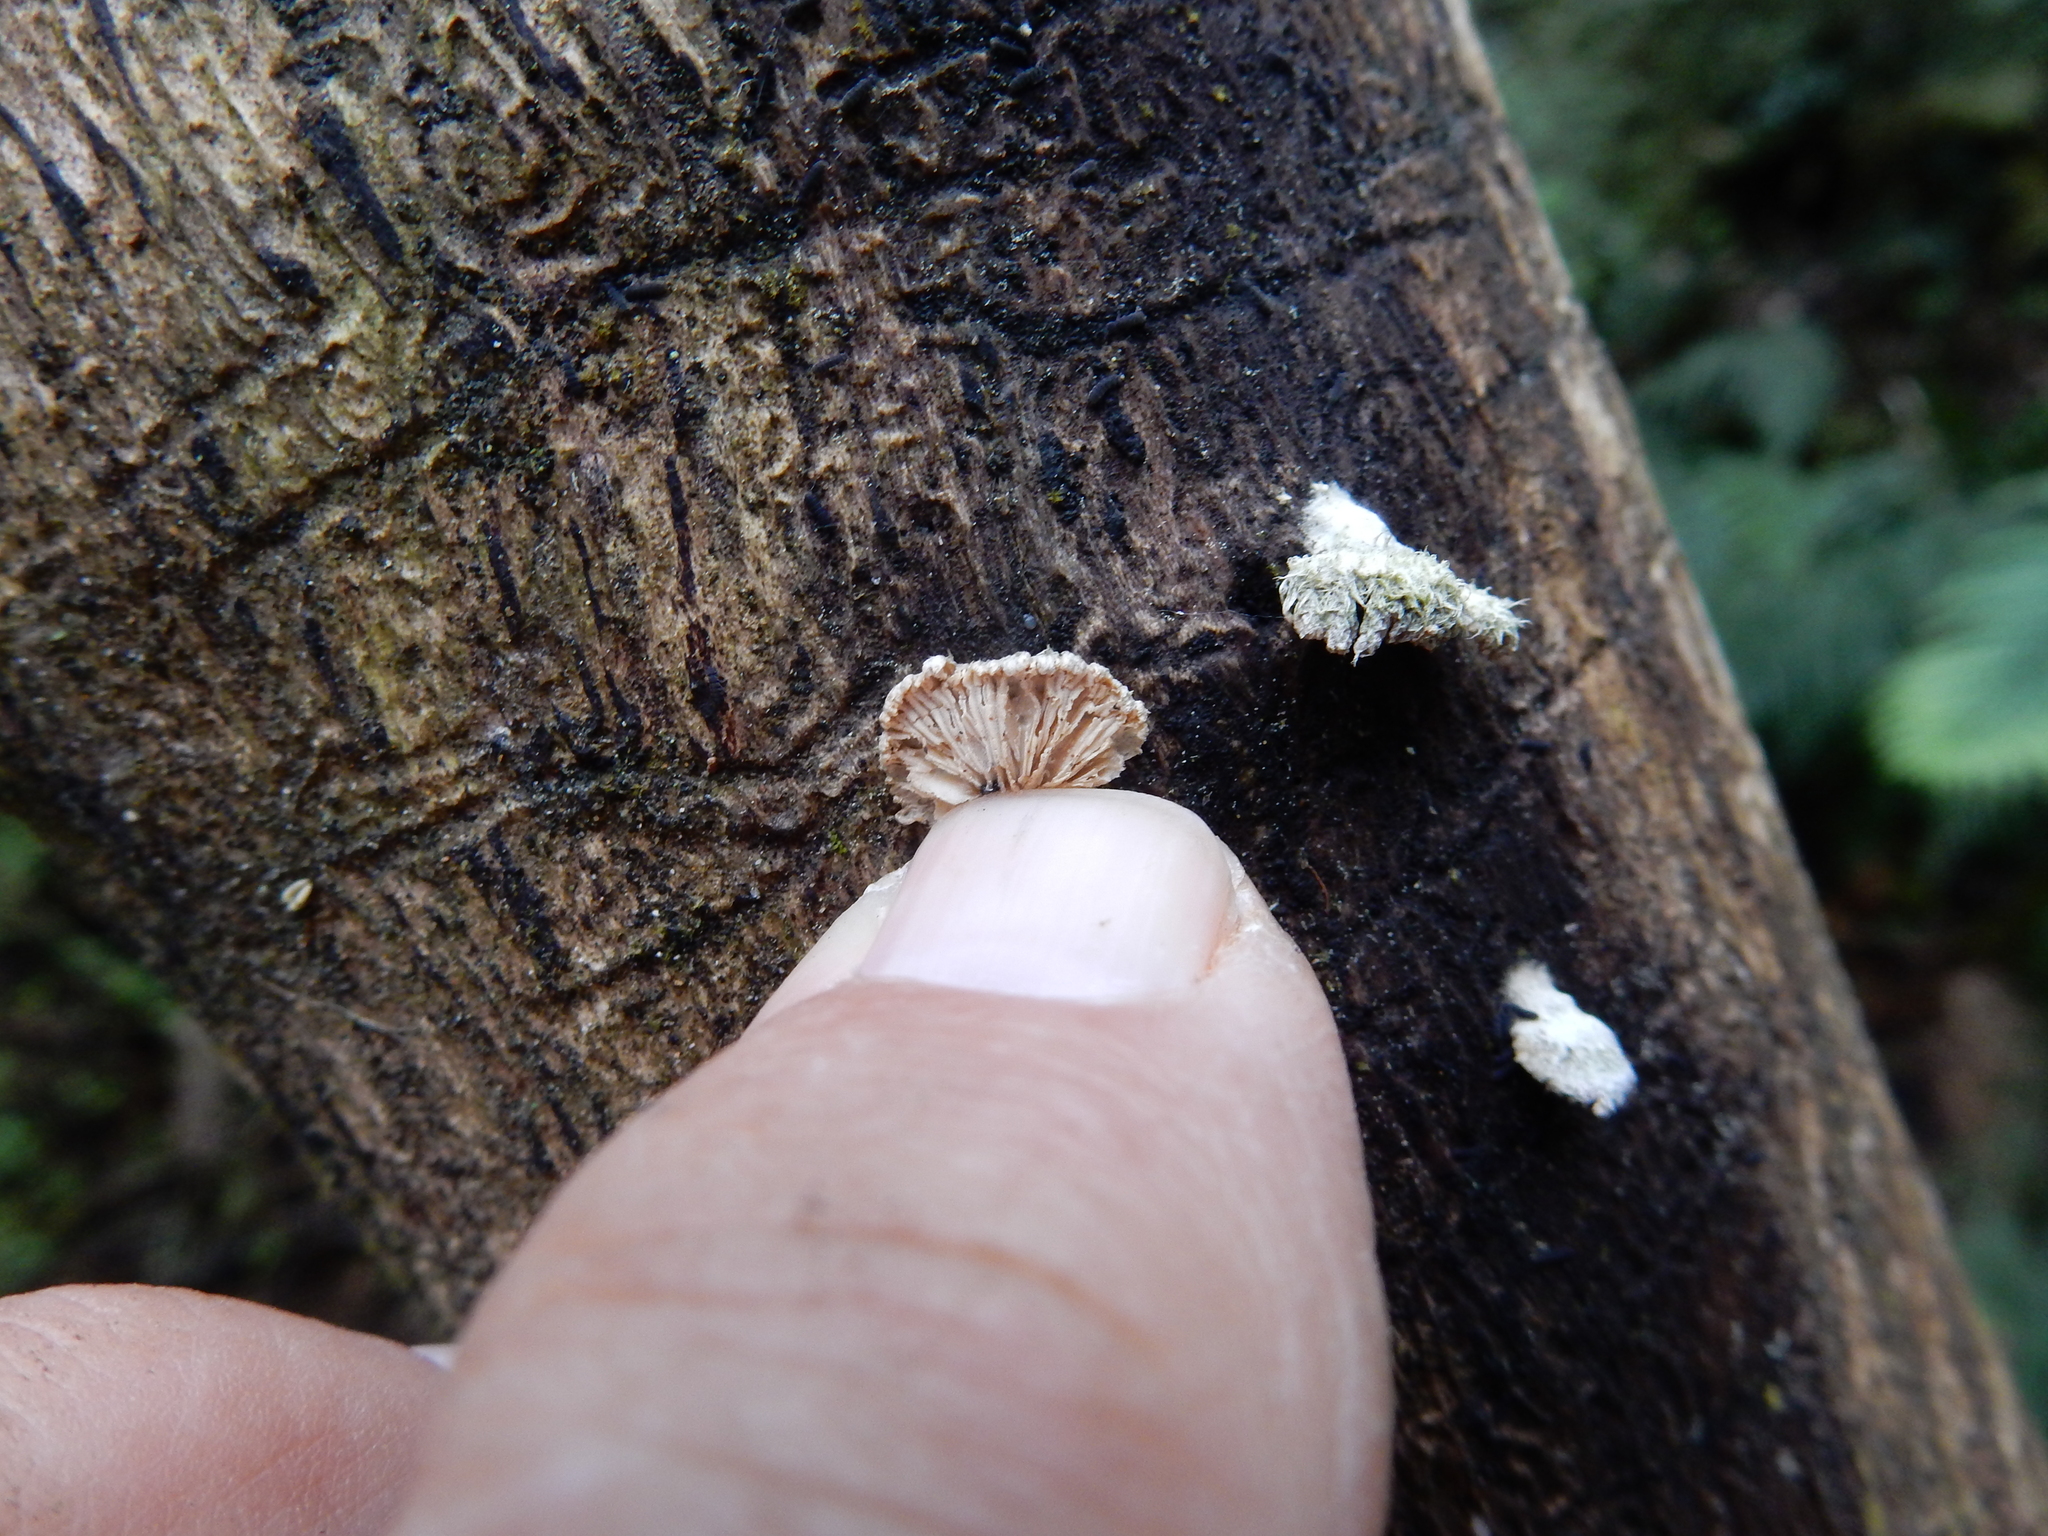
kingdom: Fungi
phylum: Basidiomycota
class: Agaricomycetes
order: Agaricales
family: Schizophyllaceae
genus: Schizophyllum
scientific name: Schizophyllum commune
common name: Common porecrust
